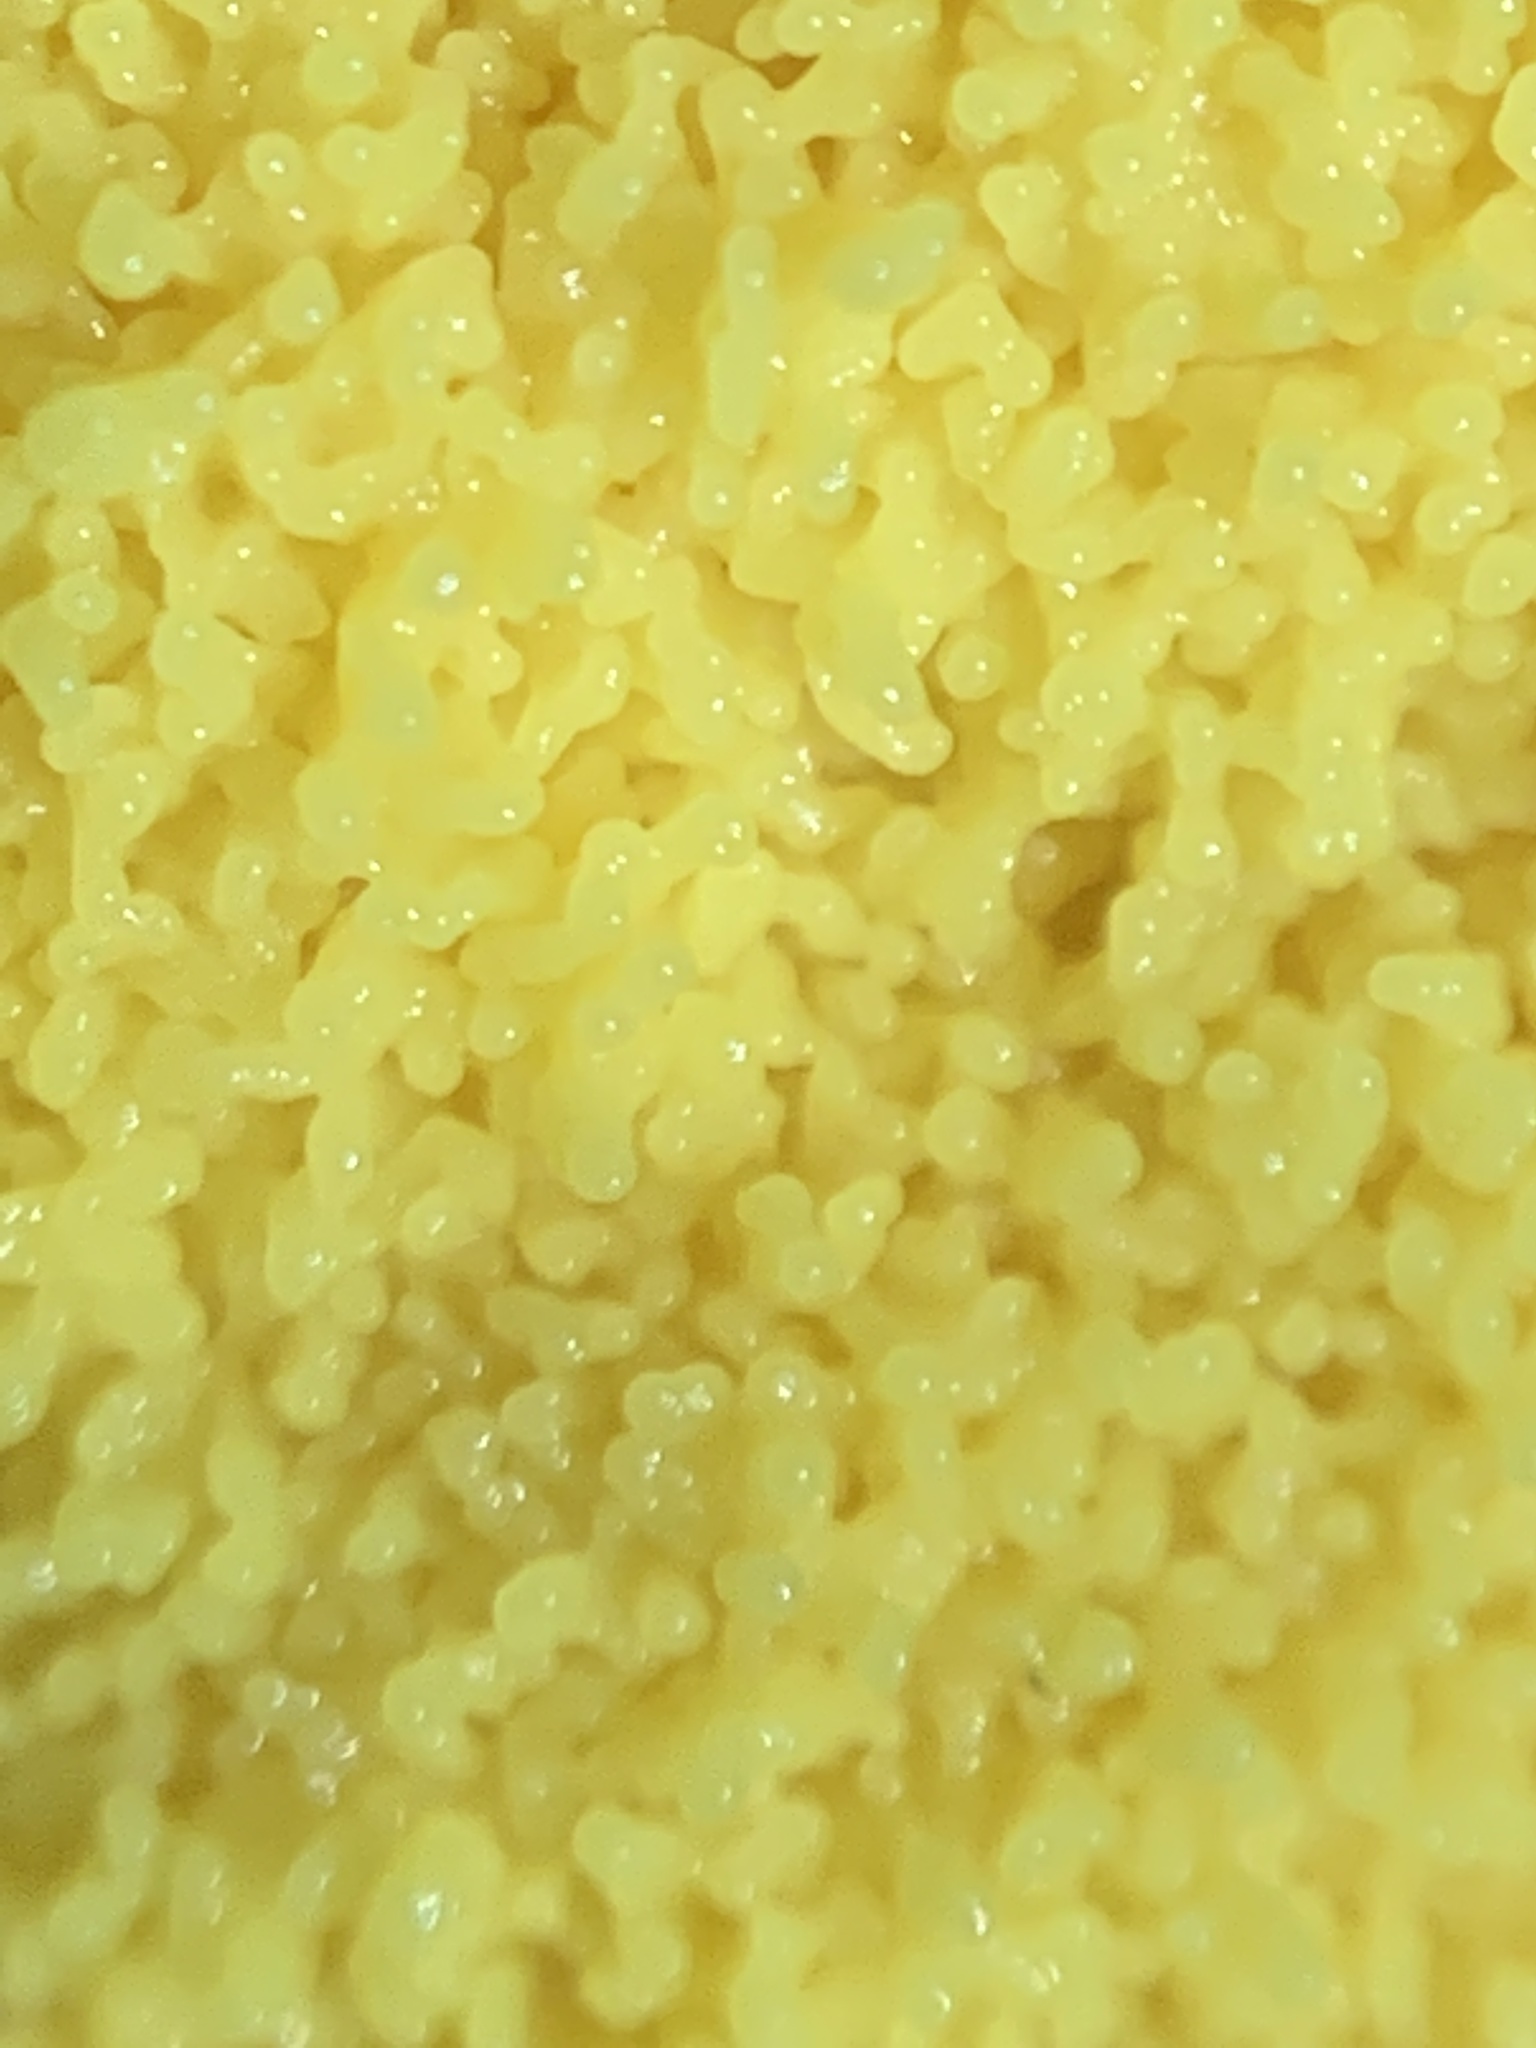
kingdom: Protozoa
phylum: Mycetozoa
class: Myxomycetes
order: Physarales
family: Physaraceae
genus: Fuligo
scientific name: Fuligo septica
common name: Dog vomit slime mold
